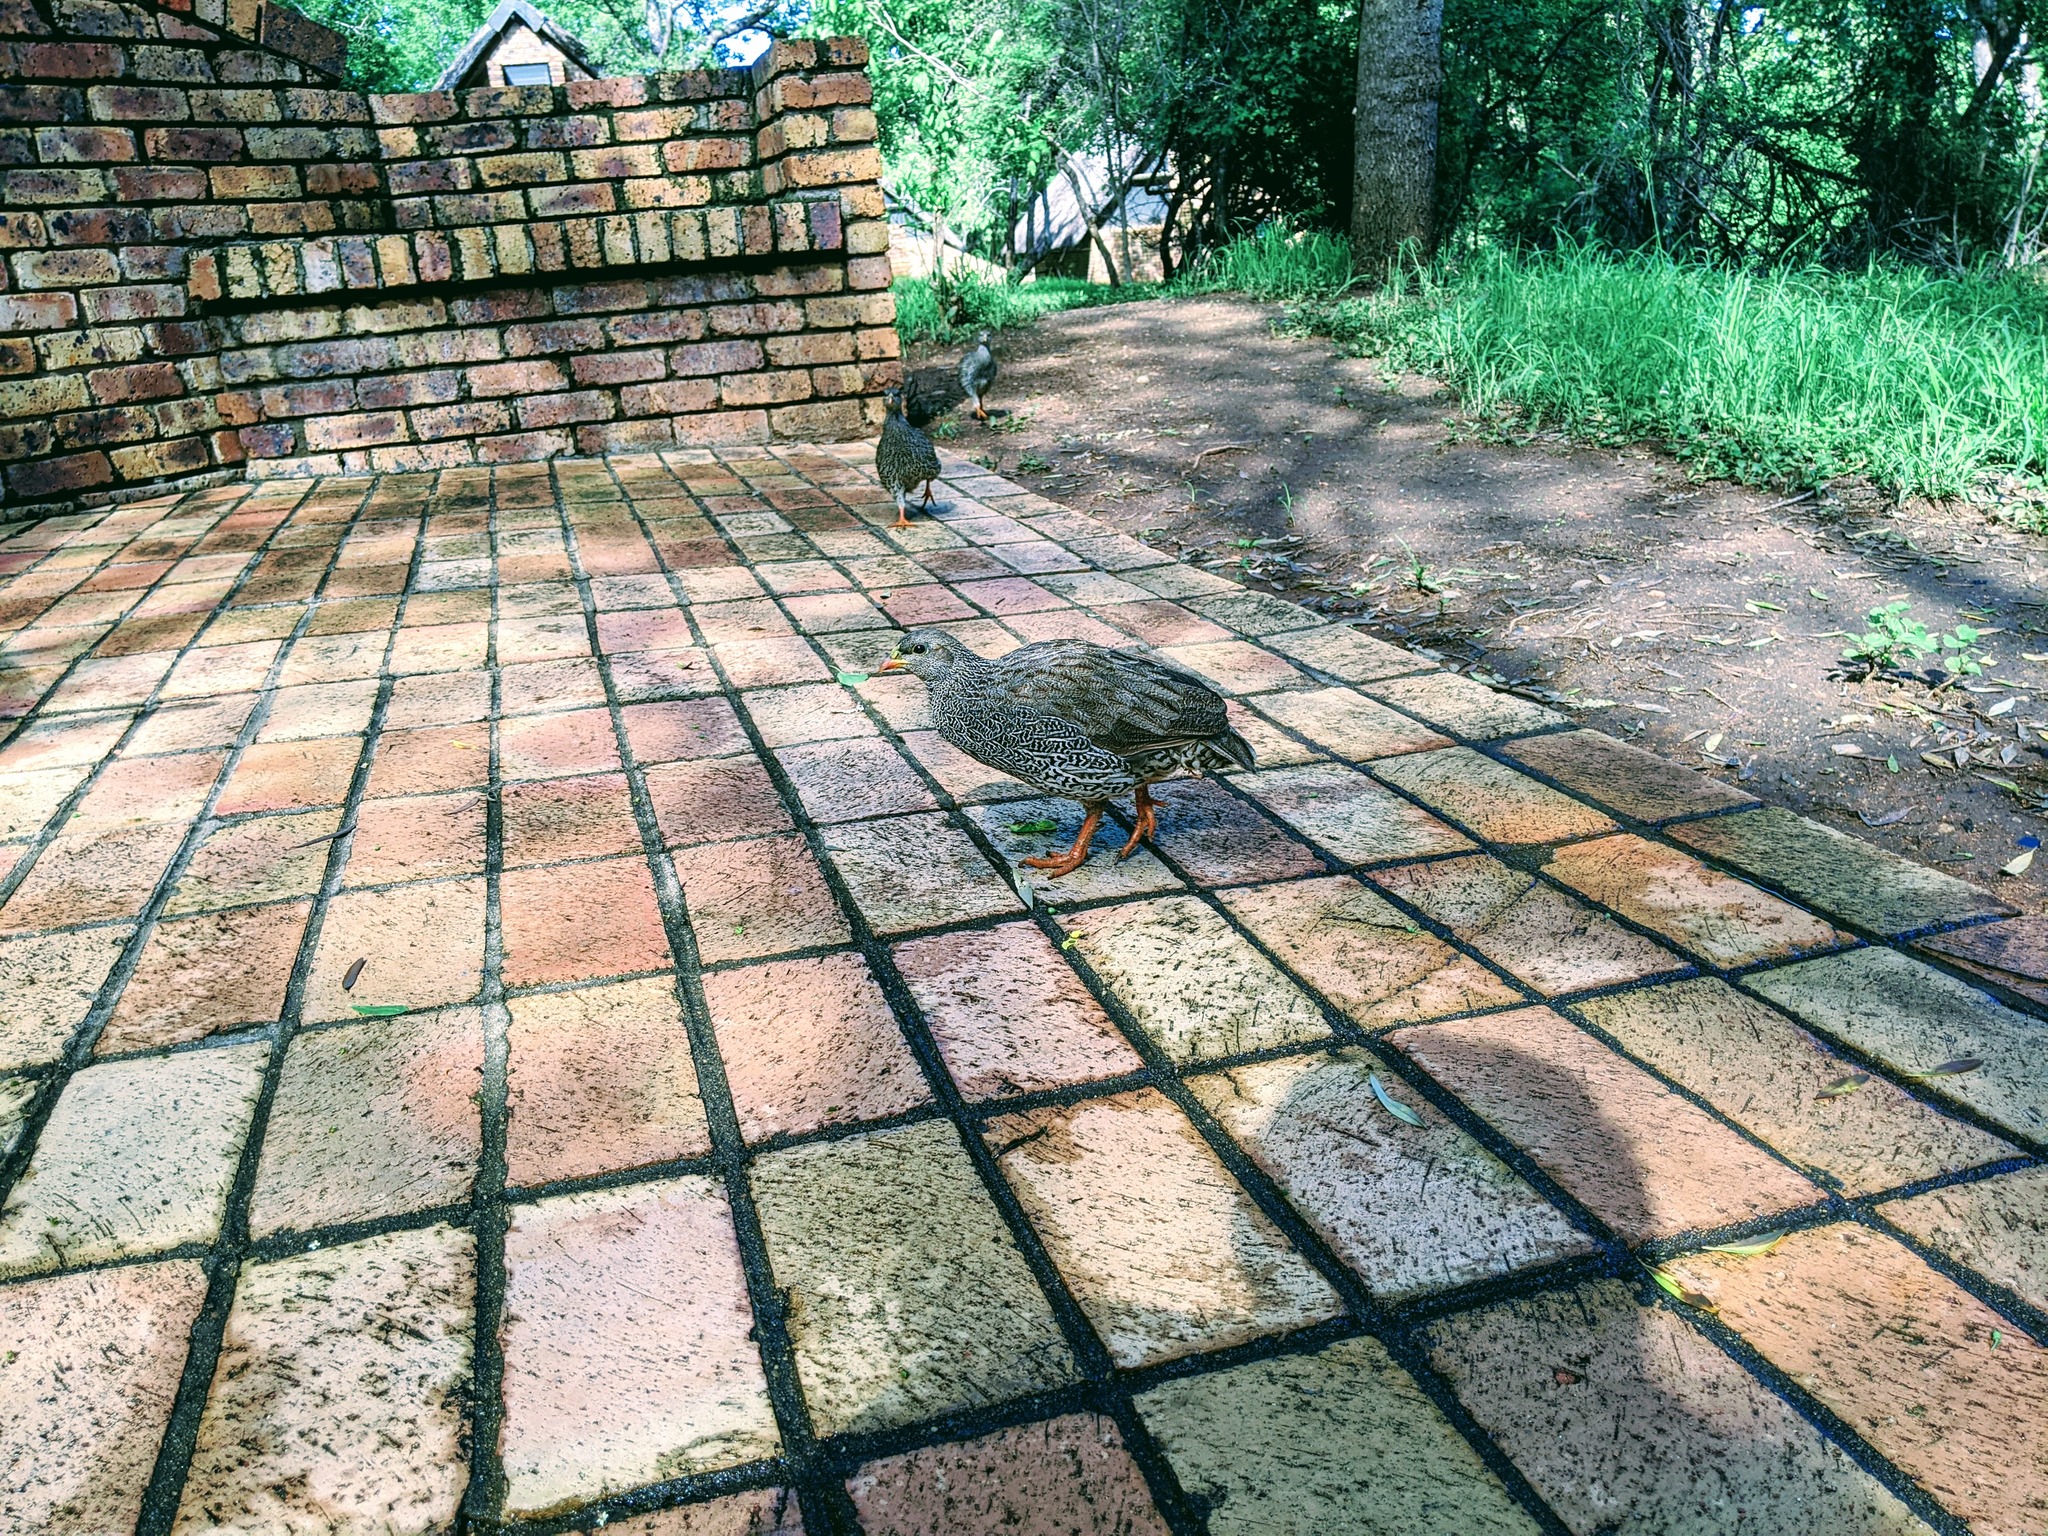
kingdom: Animalia
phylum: Chordata
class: Aves
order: Galliformes
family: Phasianidae
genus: Pternistis
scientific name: Pternistis natalensis
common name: Natal spurfowl
